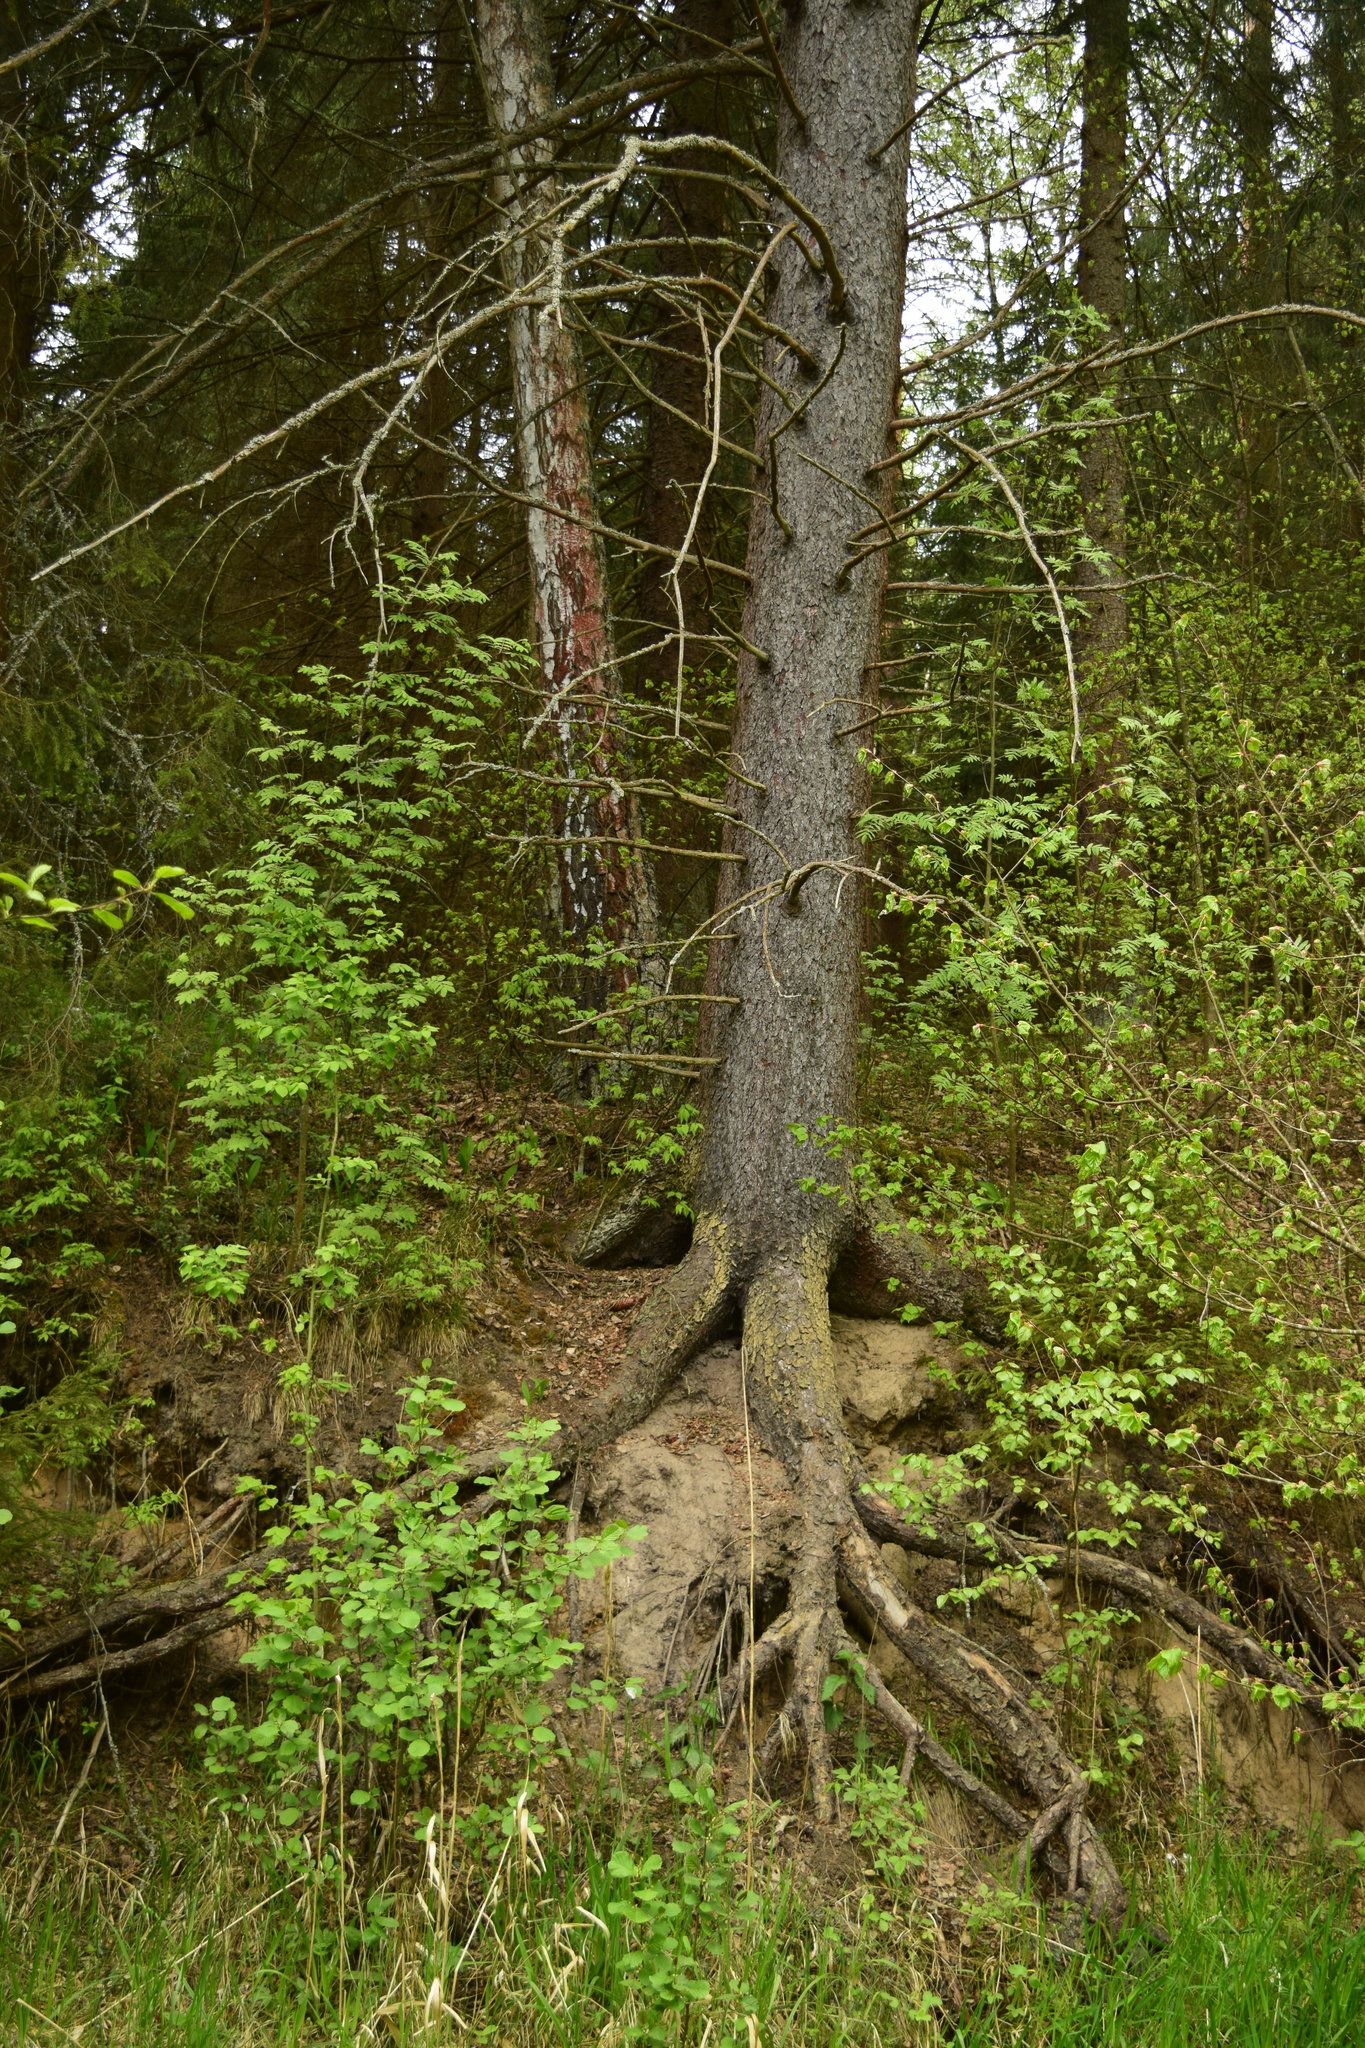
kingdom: Plantae
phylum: Tracheophyta
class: Pinopsida
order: Pinales
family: Pinaceae
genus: Picea
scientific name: Picea abies
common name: Norway spruce
